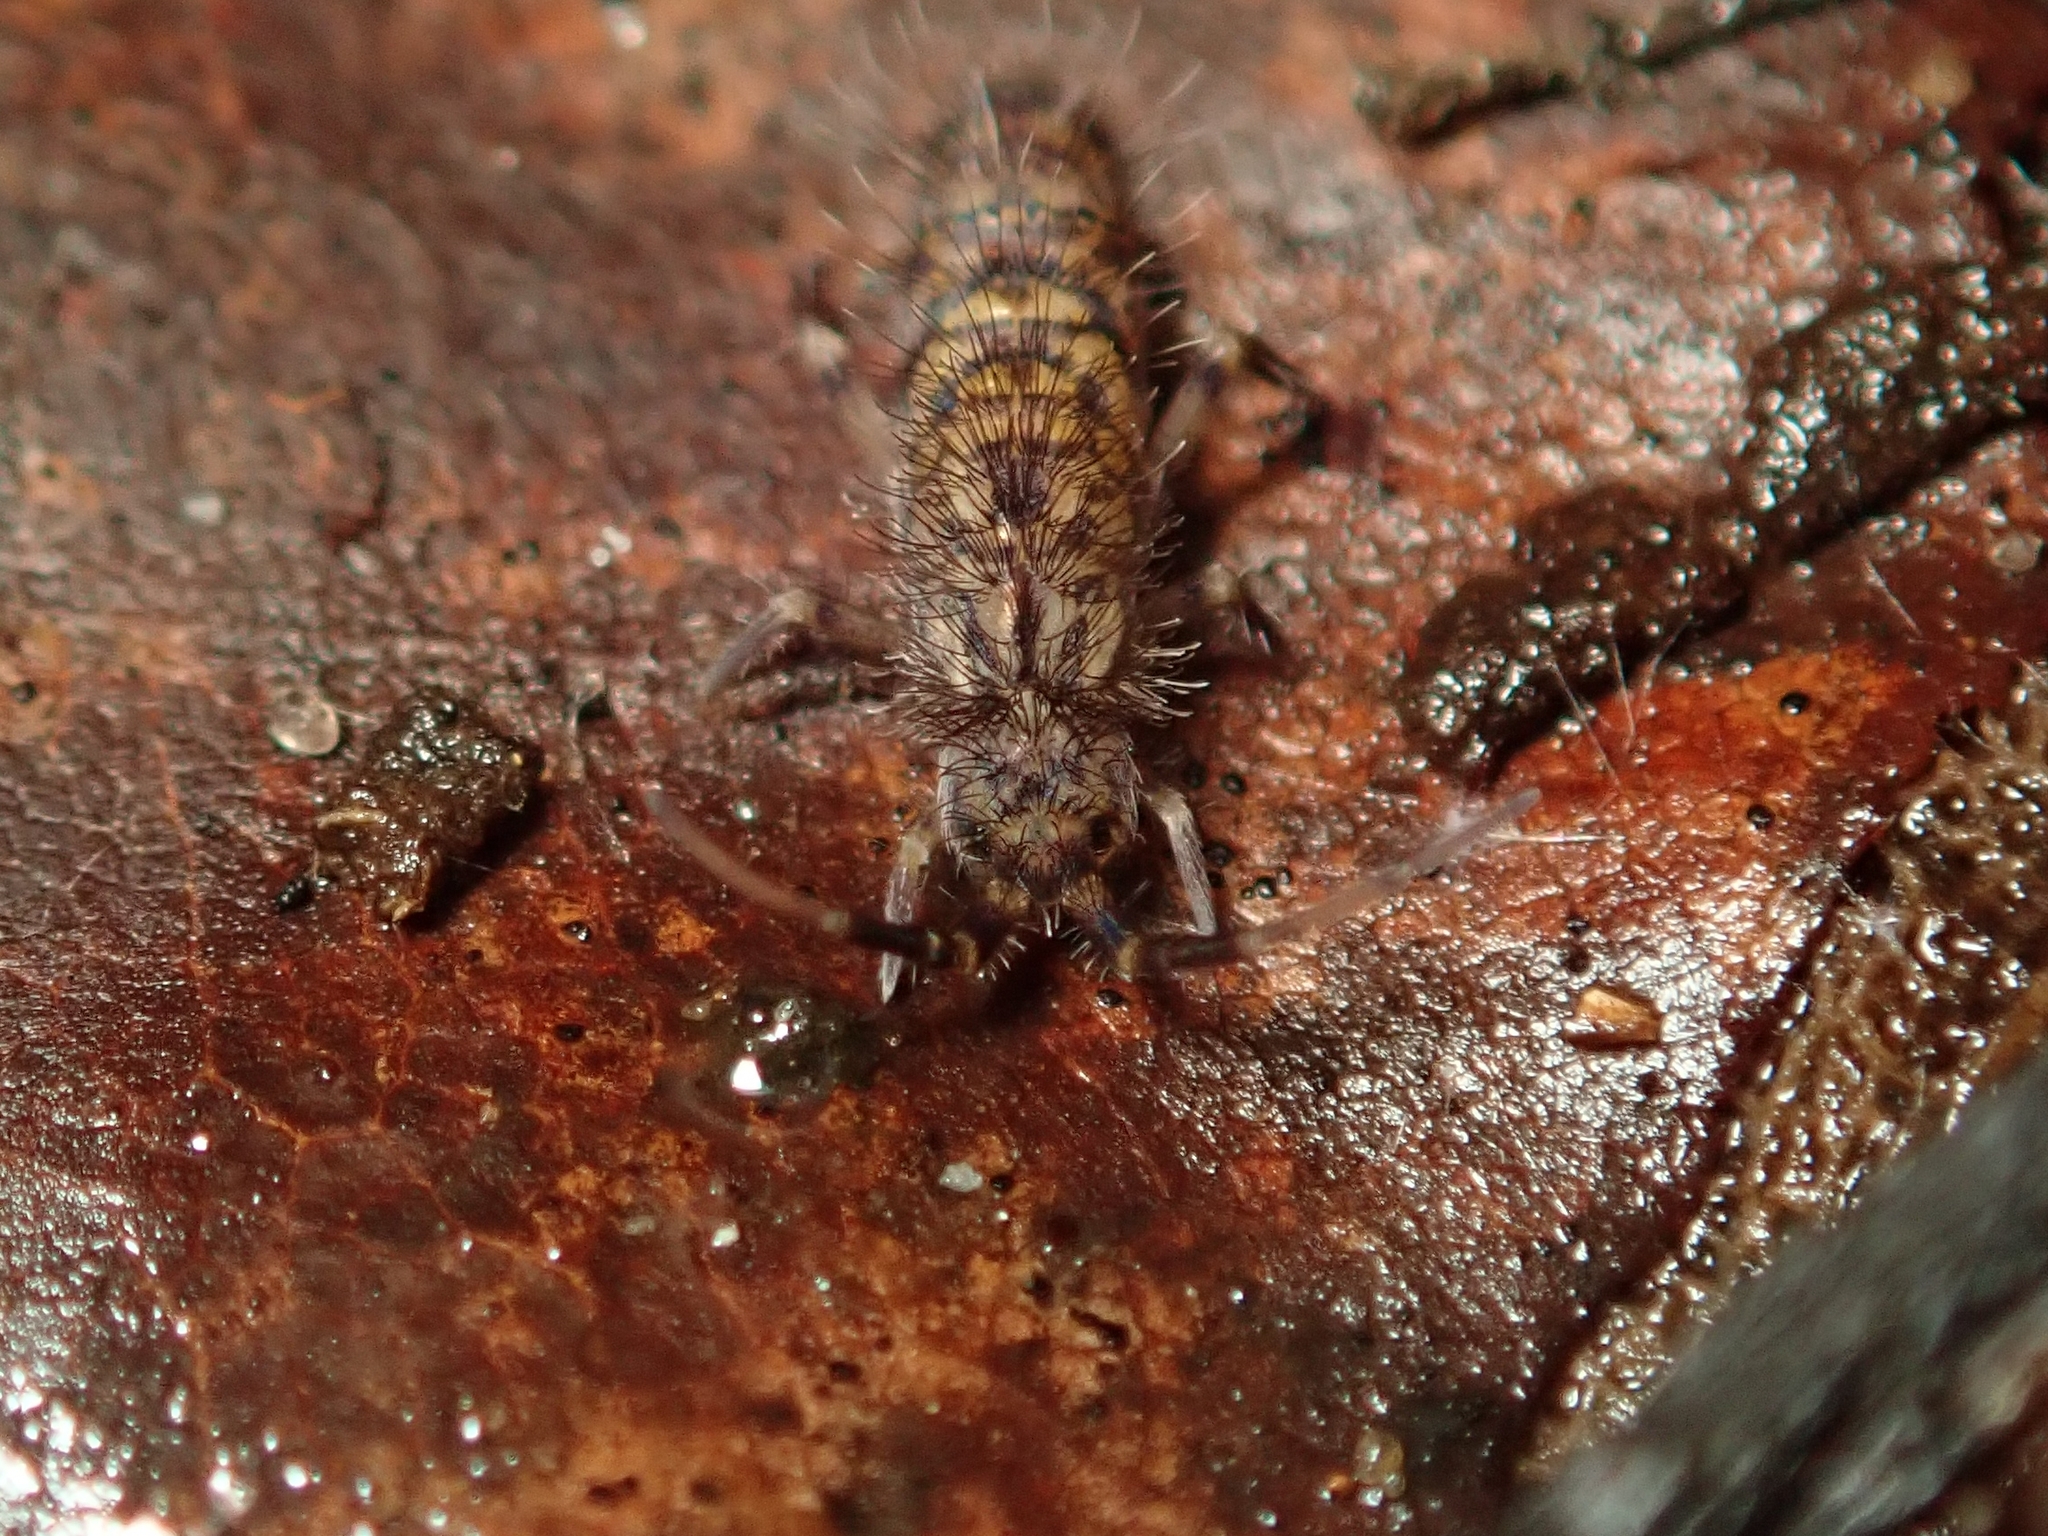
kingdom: Animalia
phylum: Arthropoda
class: Collembola
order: Entomobryomorpha
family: Orchesellidae
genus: Orchesella
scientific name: Orchesella villosa
